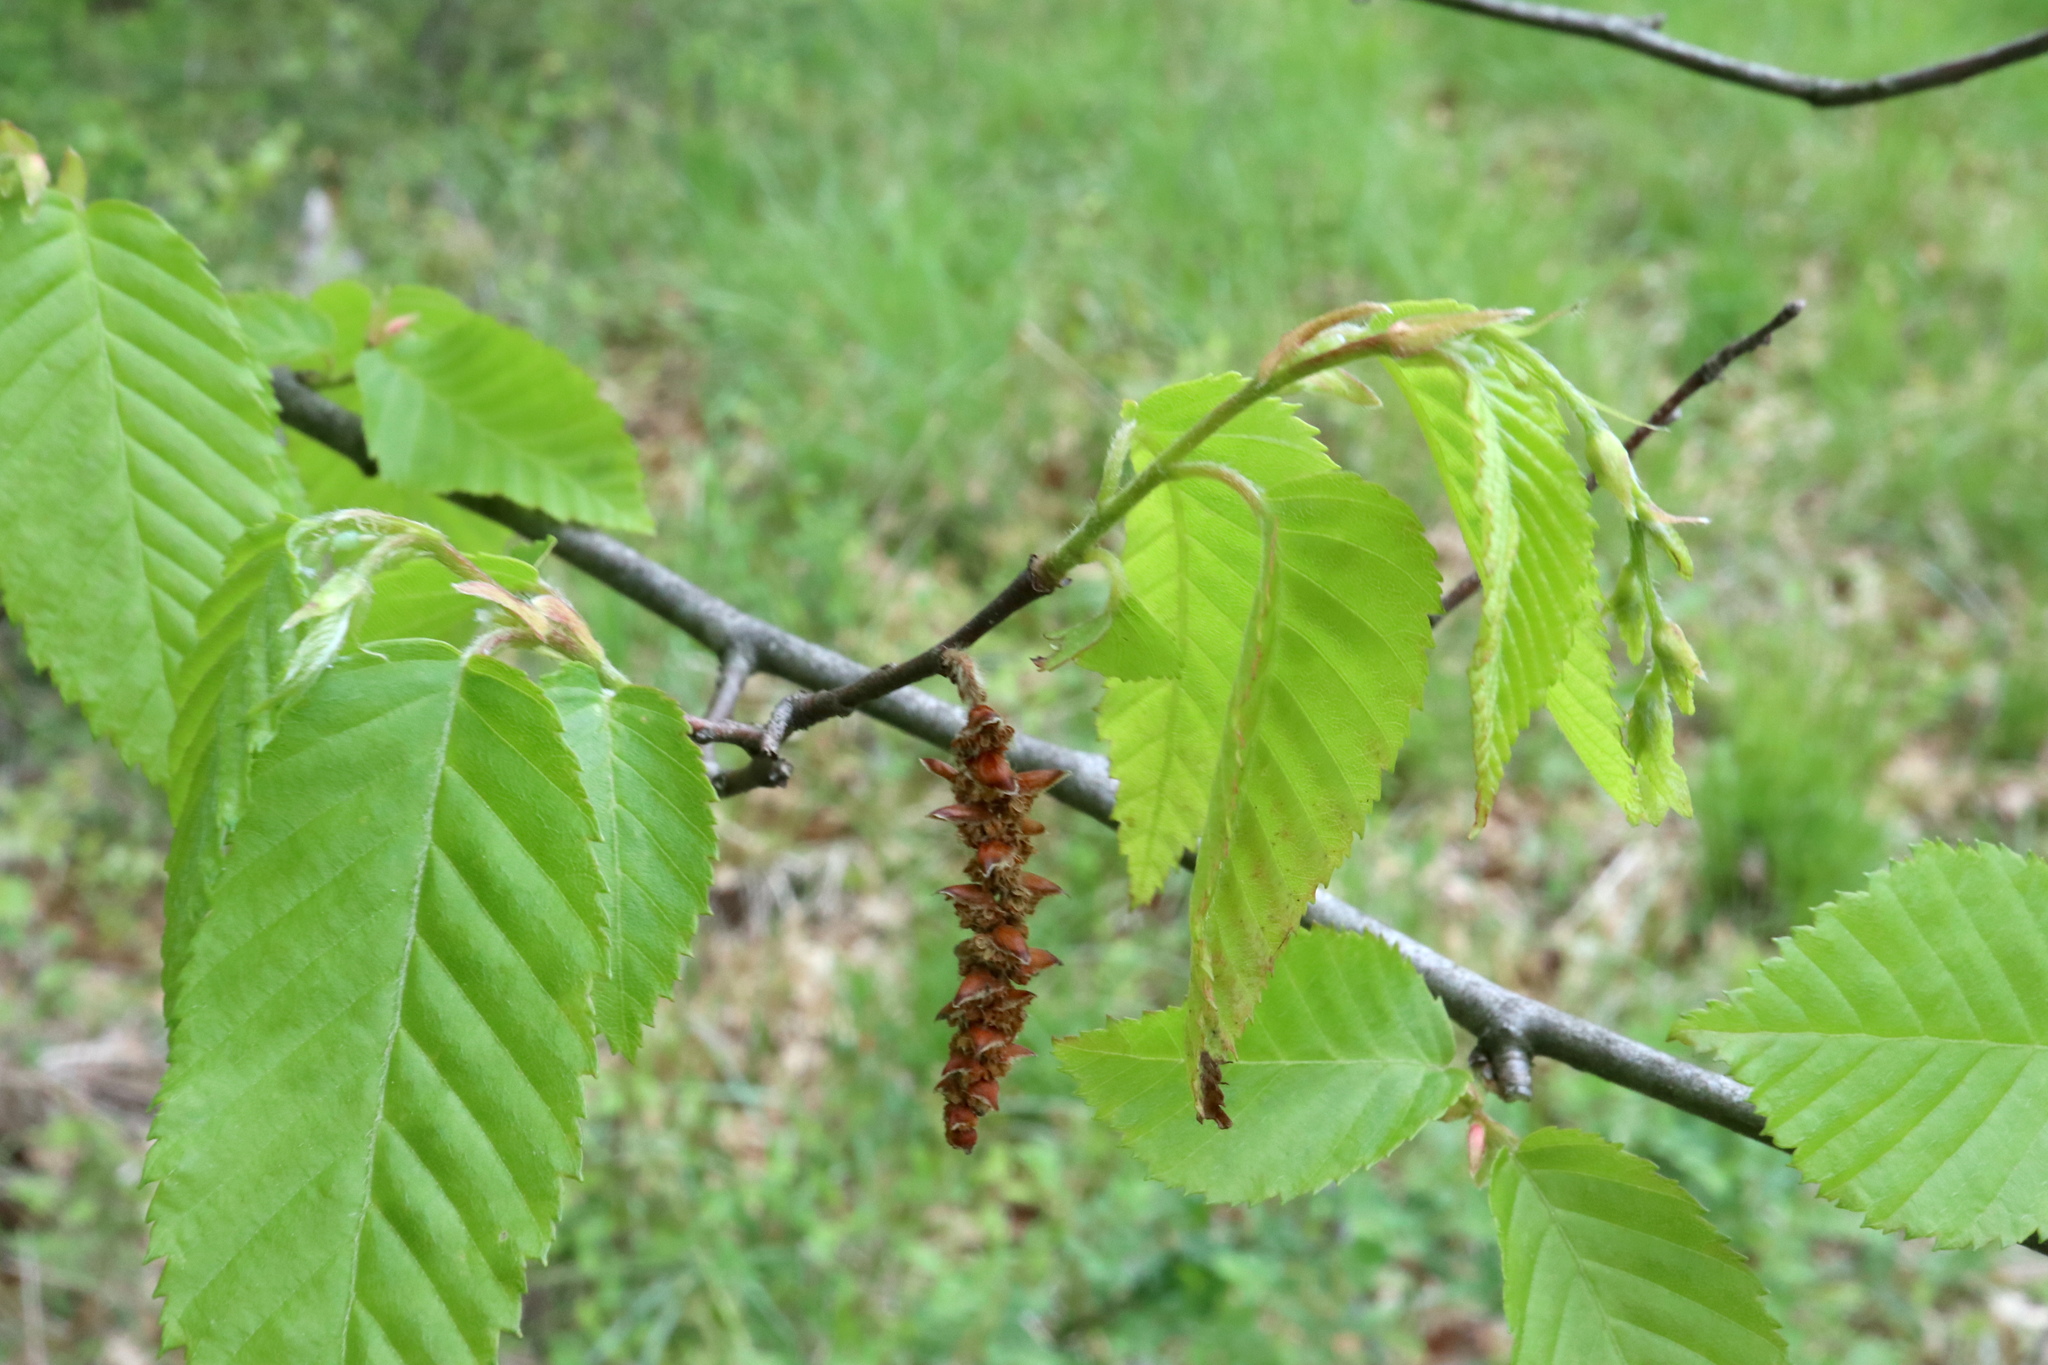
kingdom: Plantae
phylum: Tracheophyta
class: Magnoliopsida
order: Fagales
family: Betulaceae
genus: Carpinus
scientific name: Carpinus caroliniana
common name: American hornbeam
